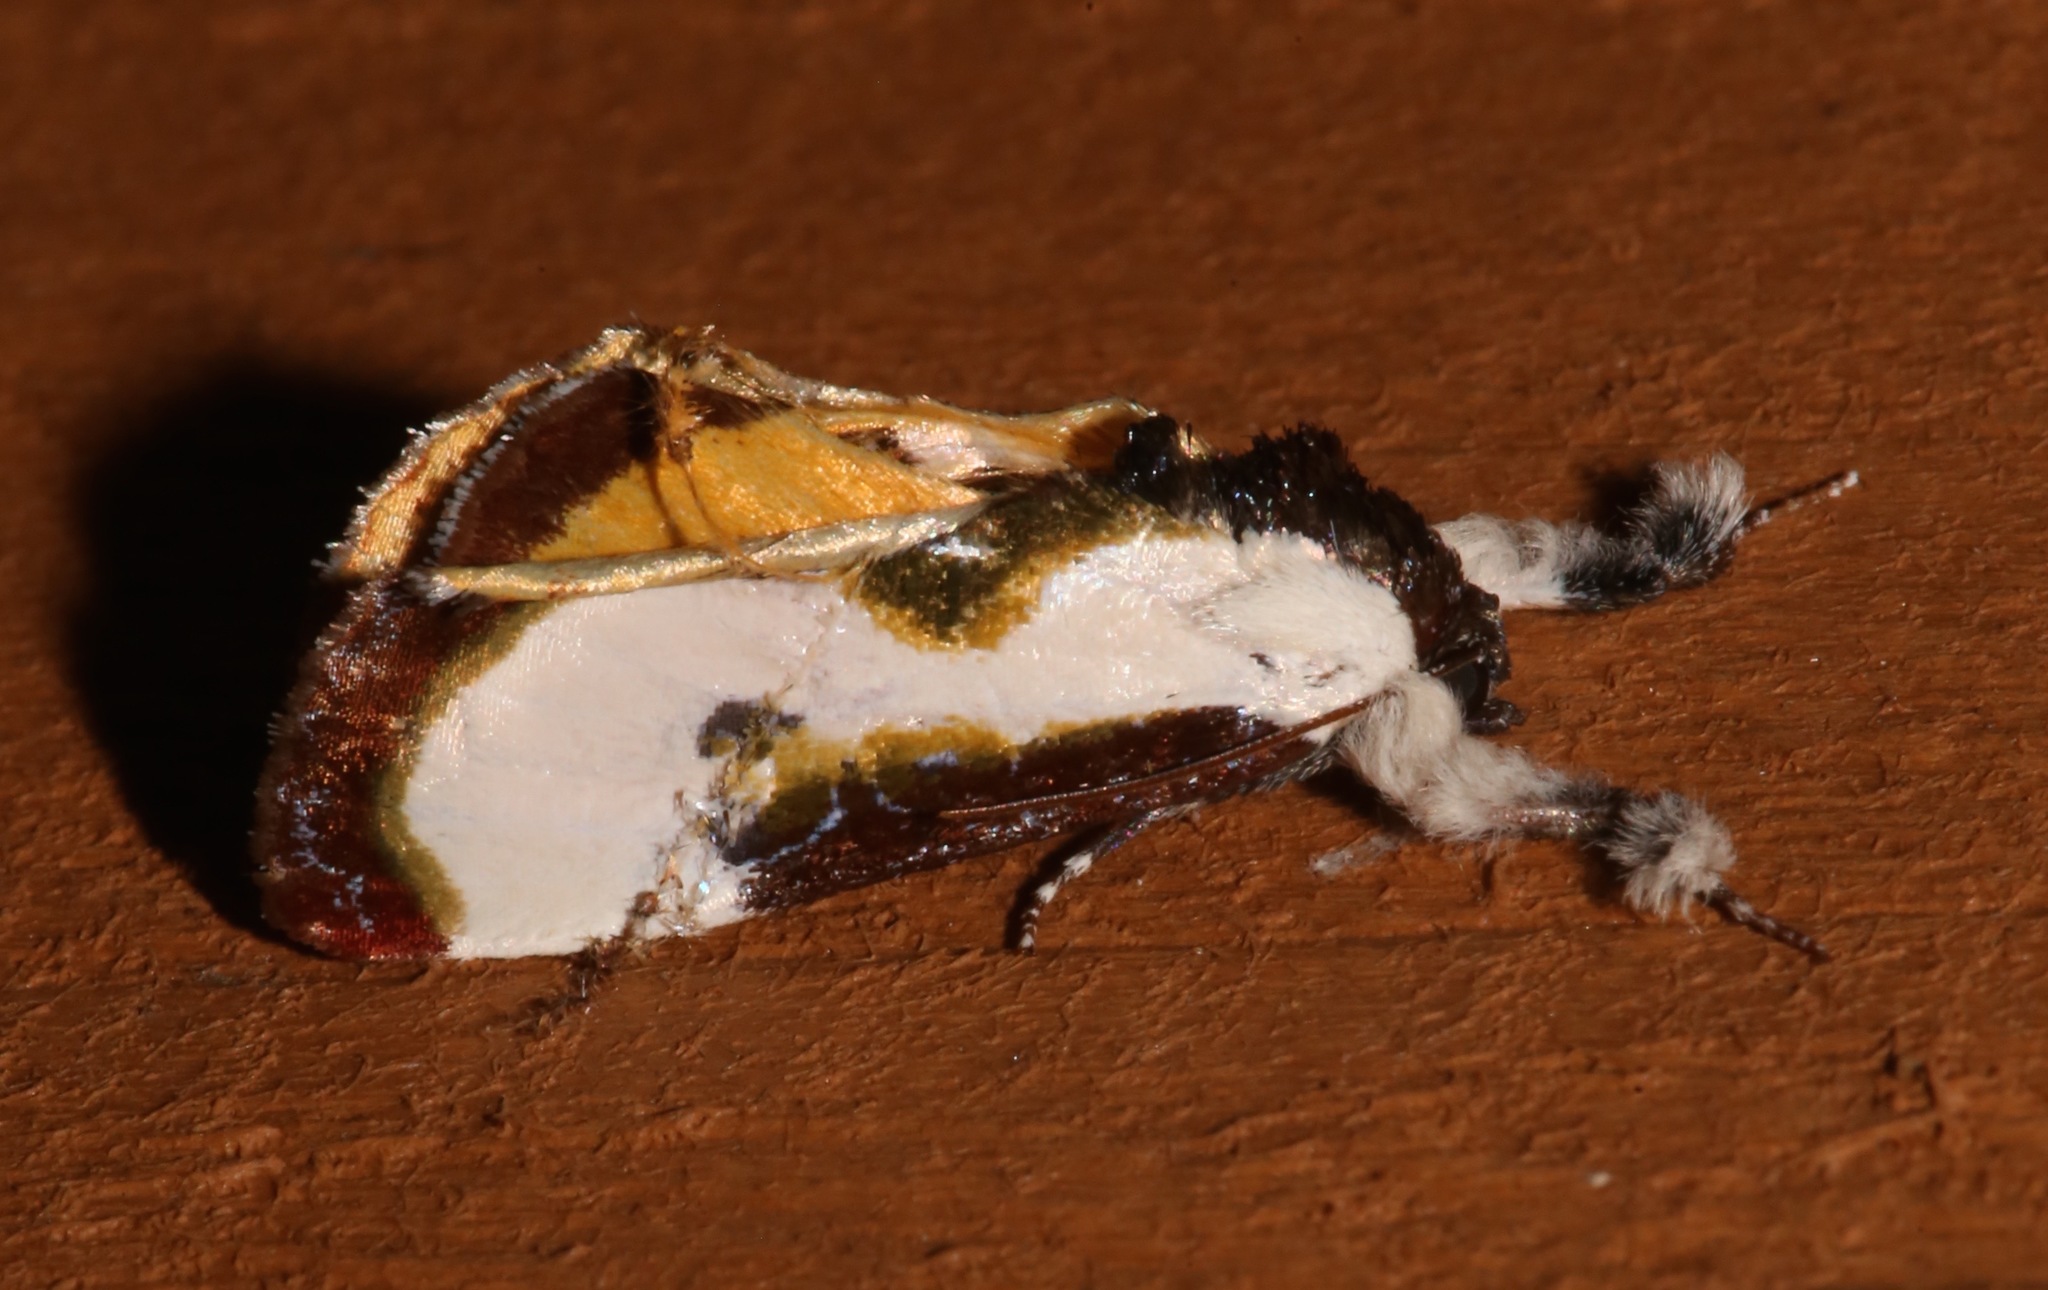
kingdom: Animalia
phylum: Arthropoda
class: Insecta
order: Lepidoptera
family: Noctuidae
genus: Eudryas
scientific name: Eudryas grata
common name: Beautiful wood-nymph
